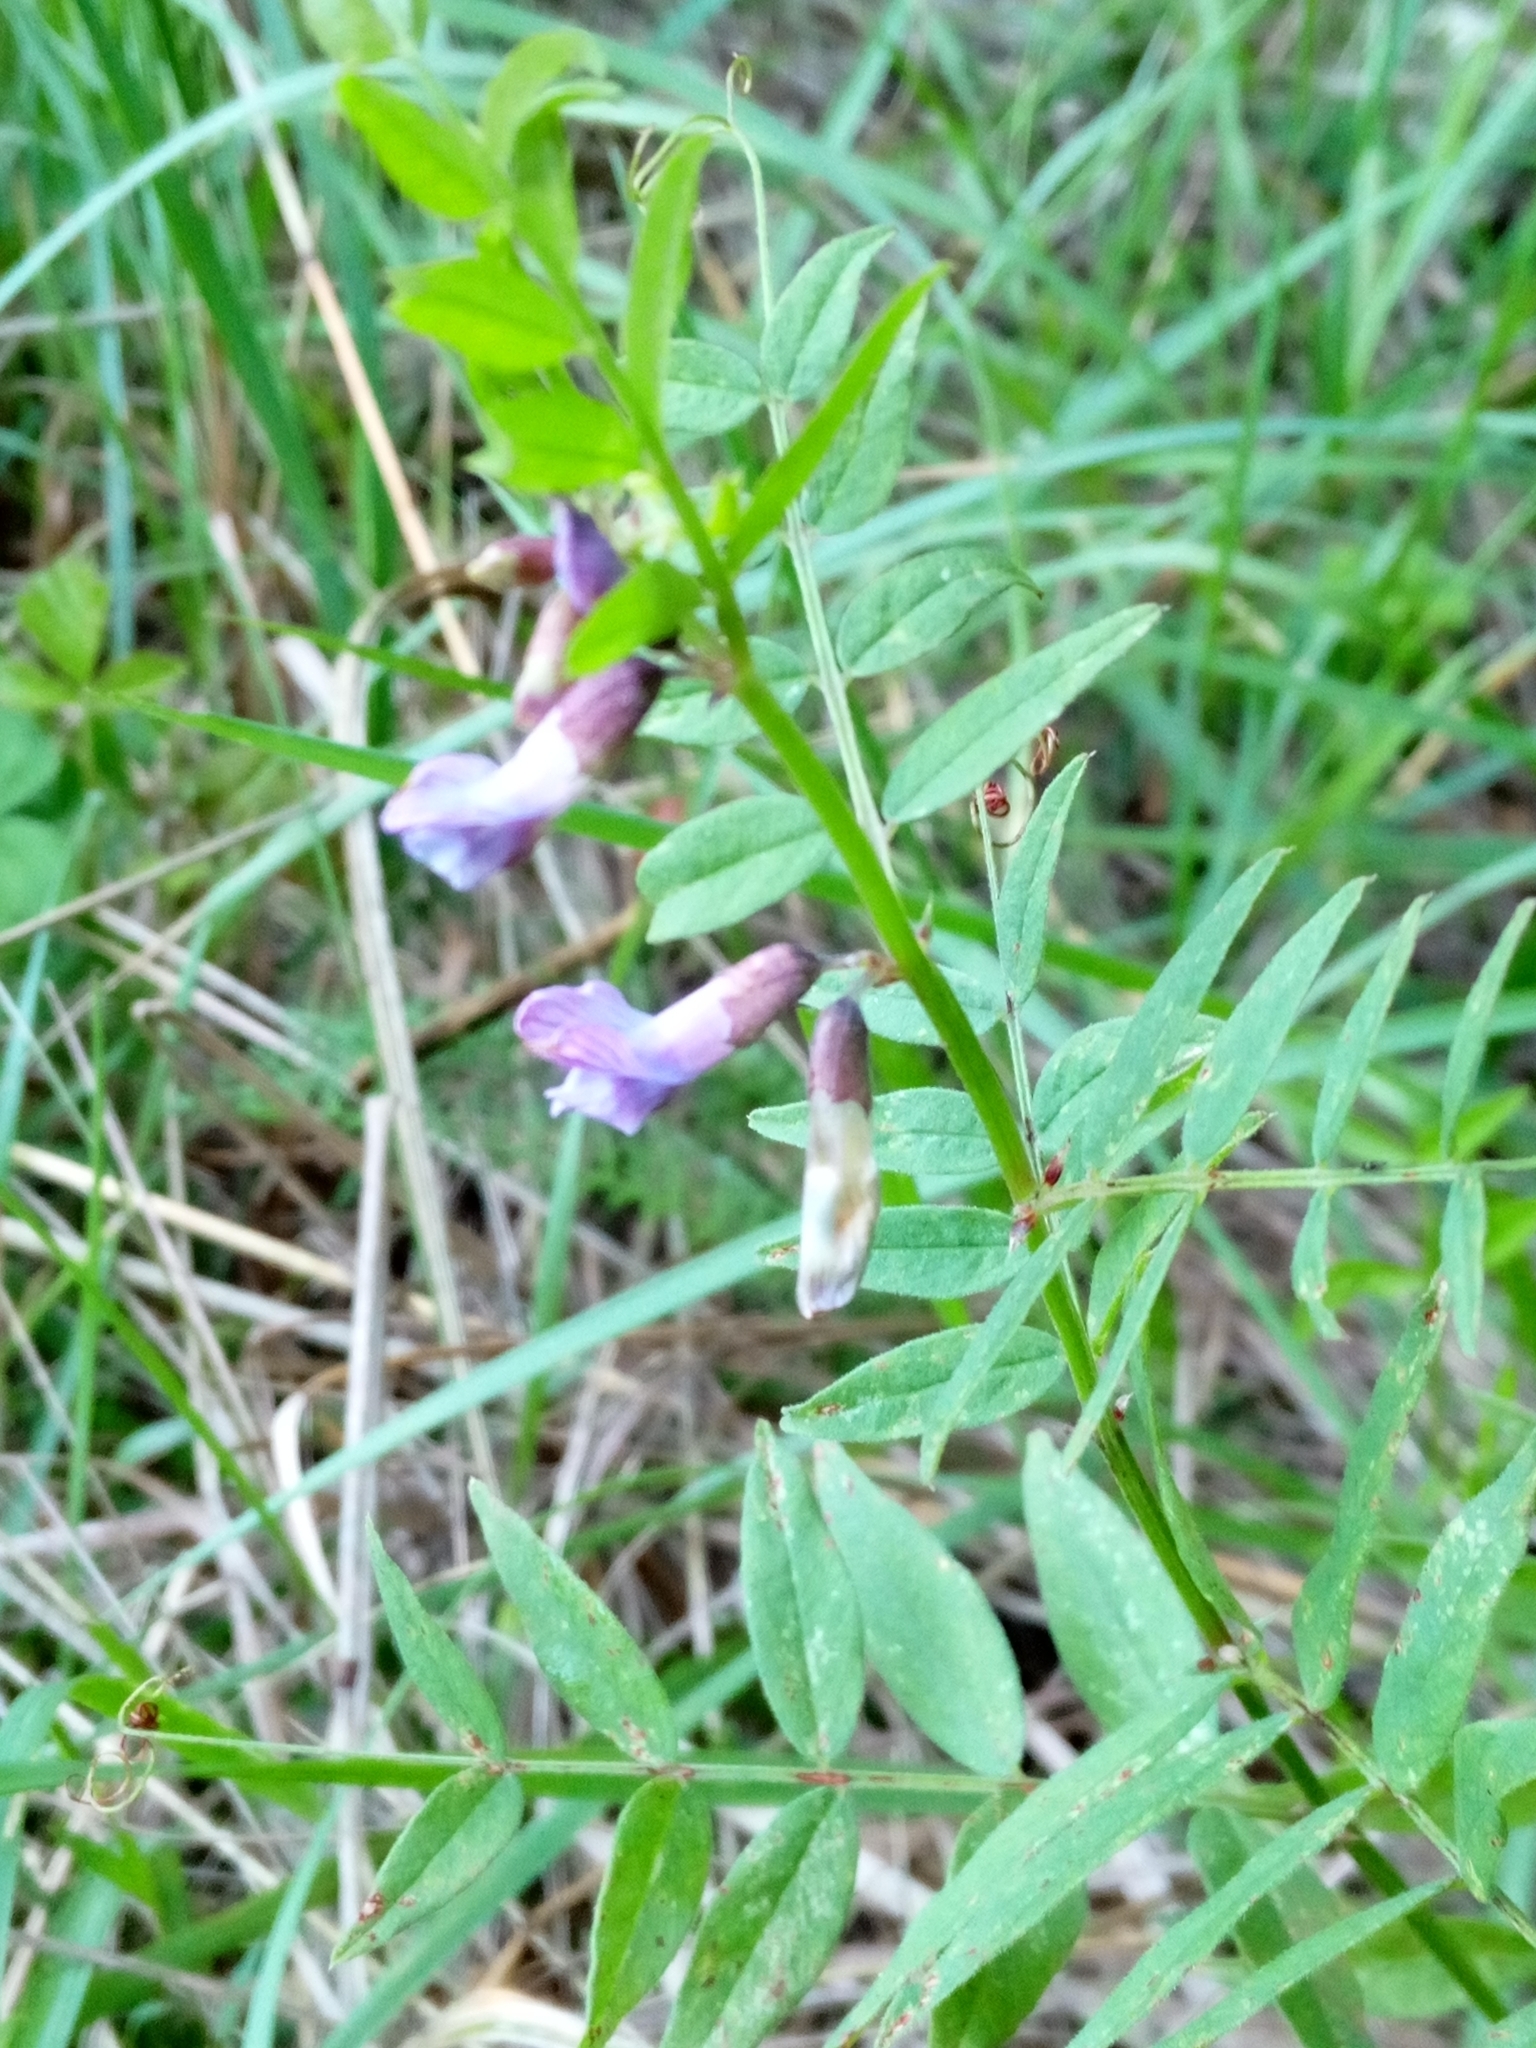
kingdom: Plantae
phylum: Tracheophyta
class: Magnoliopsida
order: Fabales
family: Fabaceae
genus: Vicia
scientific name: Vicia sepium
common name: Bush vetch
